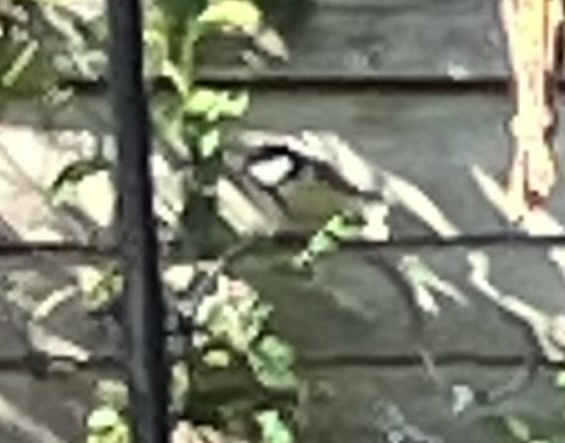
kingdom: Animalia
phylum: Chordata
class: Aves
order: Passeriformes
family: Paridae
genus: Periparus
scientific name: Periparus ater
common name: Coal tit
